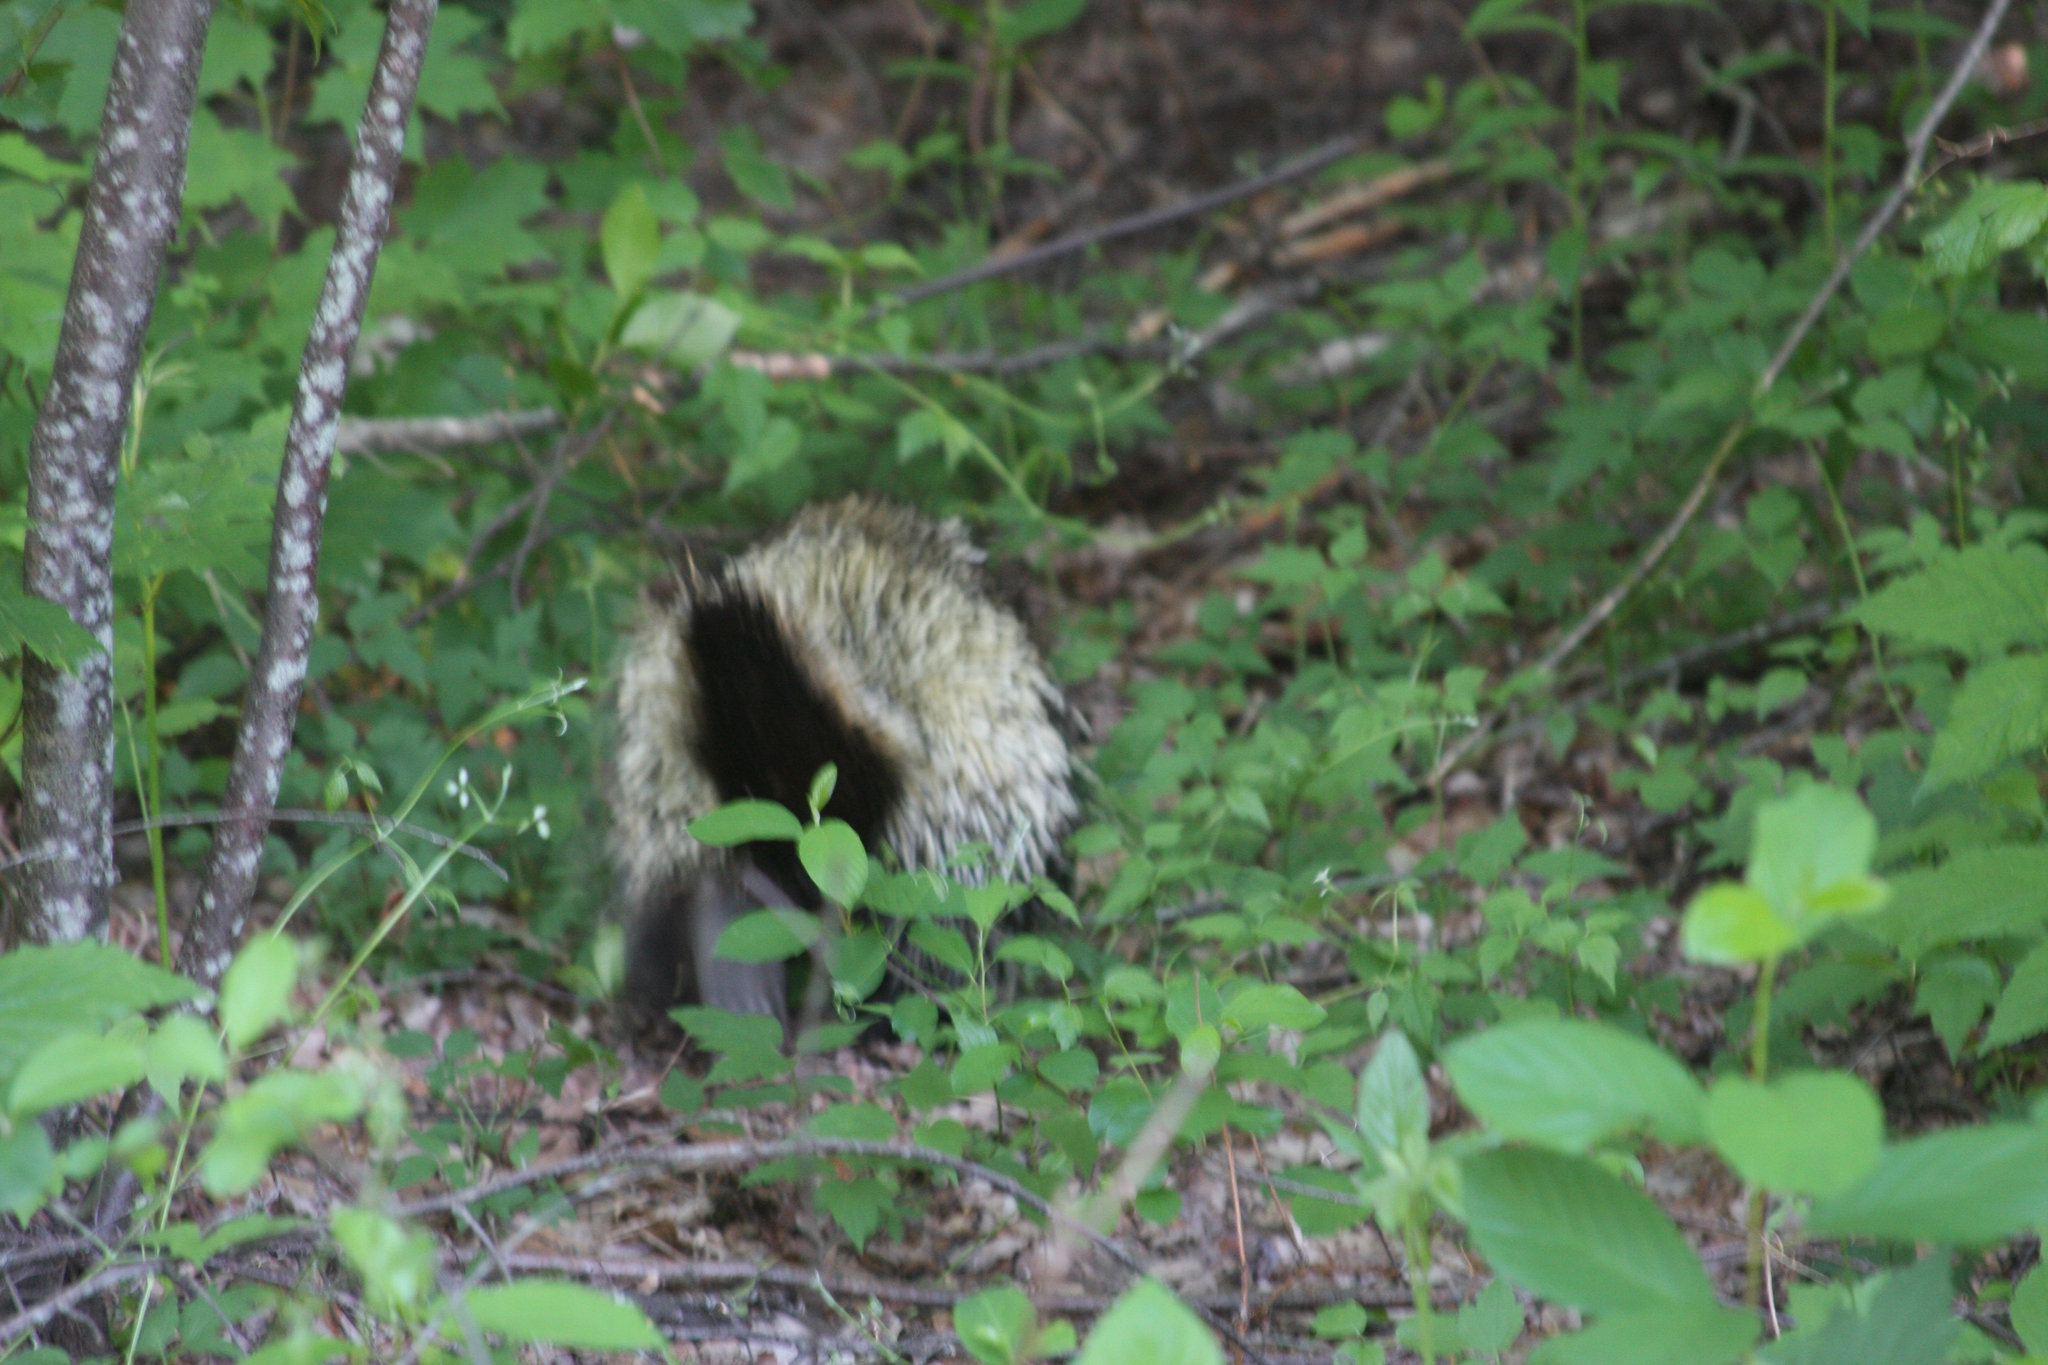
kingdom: Animalia
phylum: Chordata
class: Mammalia
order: Rodentia
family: Erethizontidae
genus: Erethizon
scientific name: Erethizon dorsatus
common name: North american porcupine
